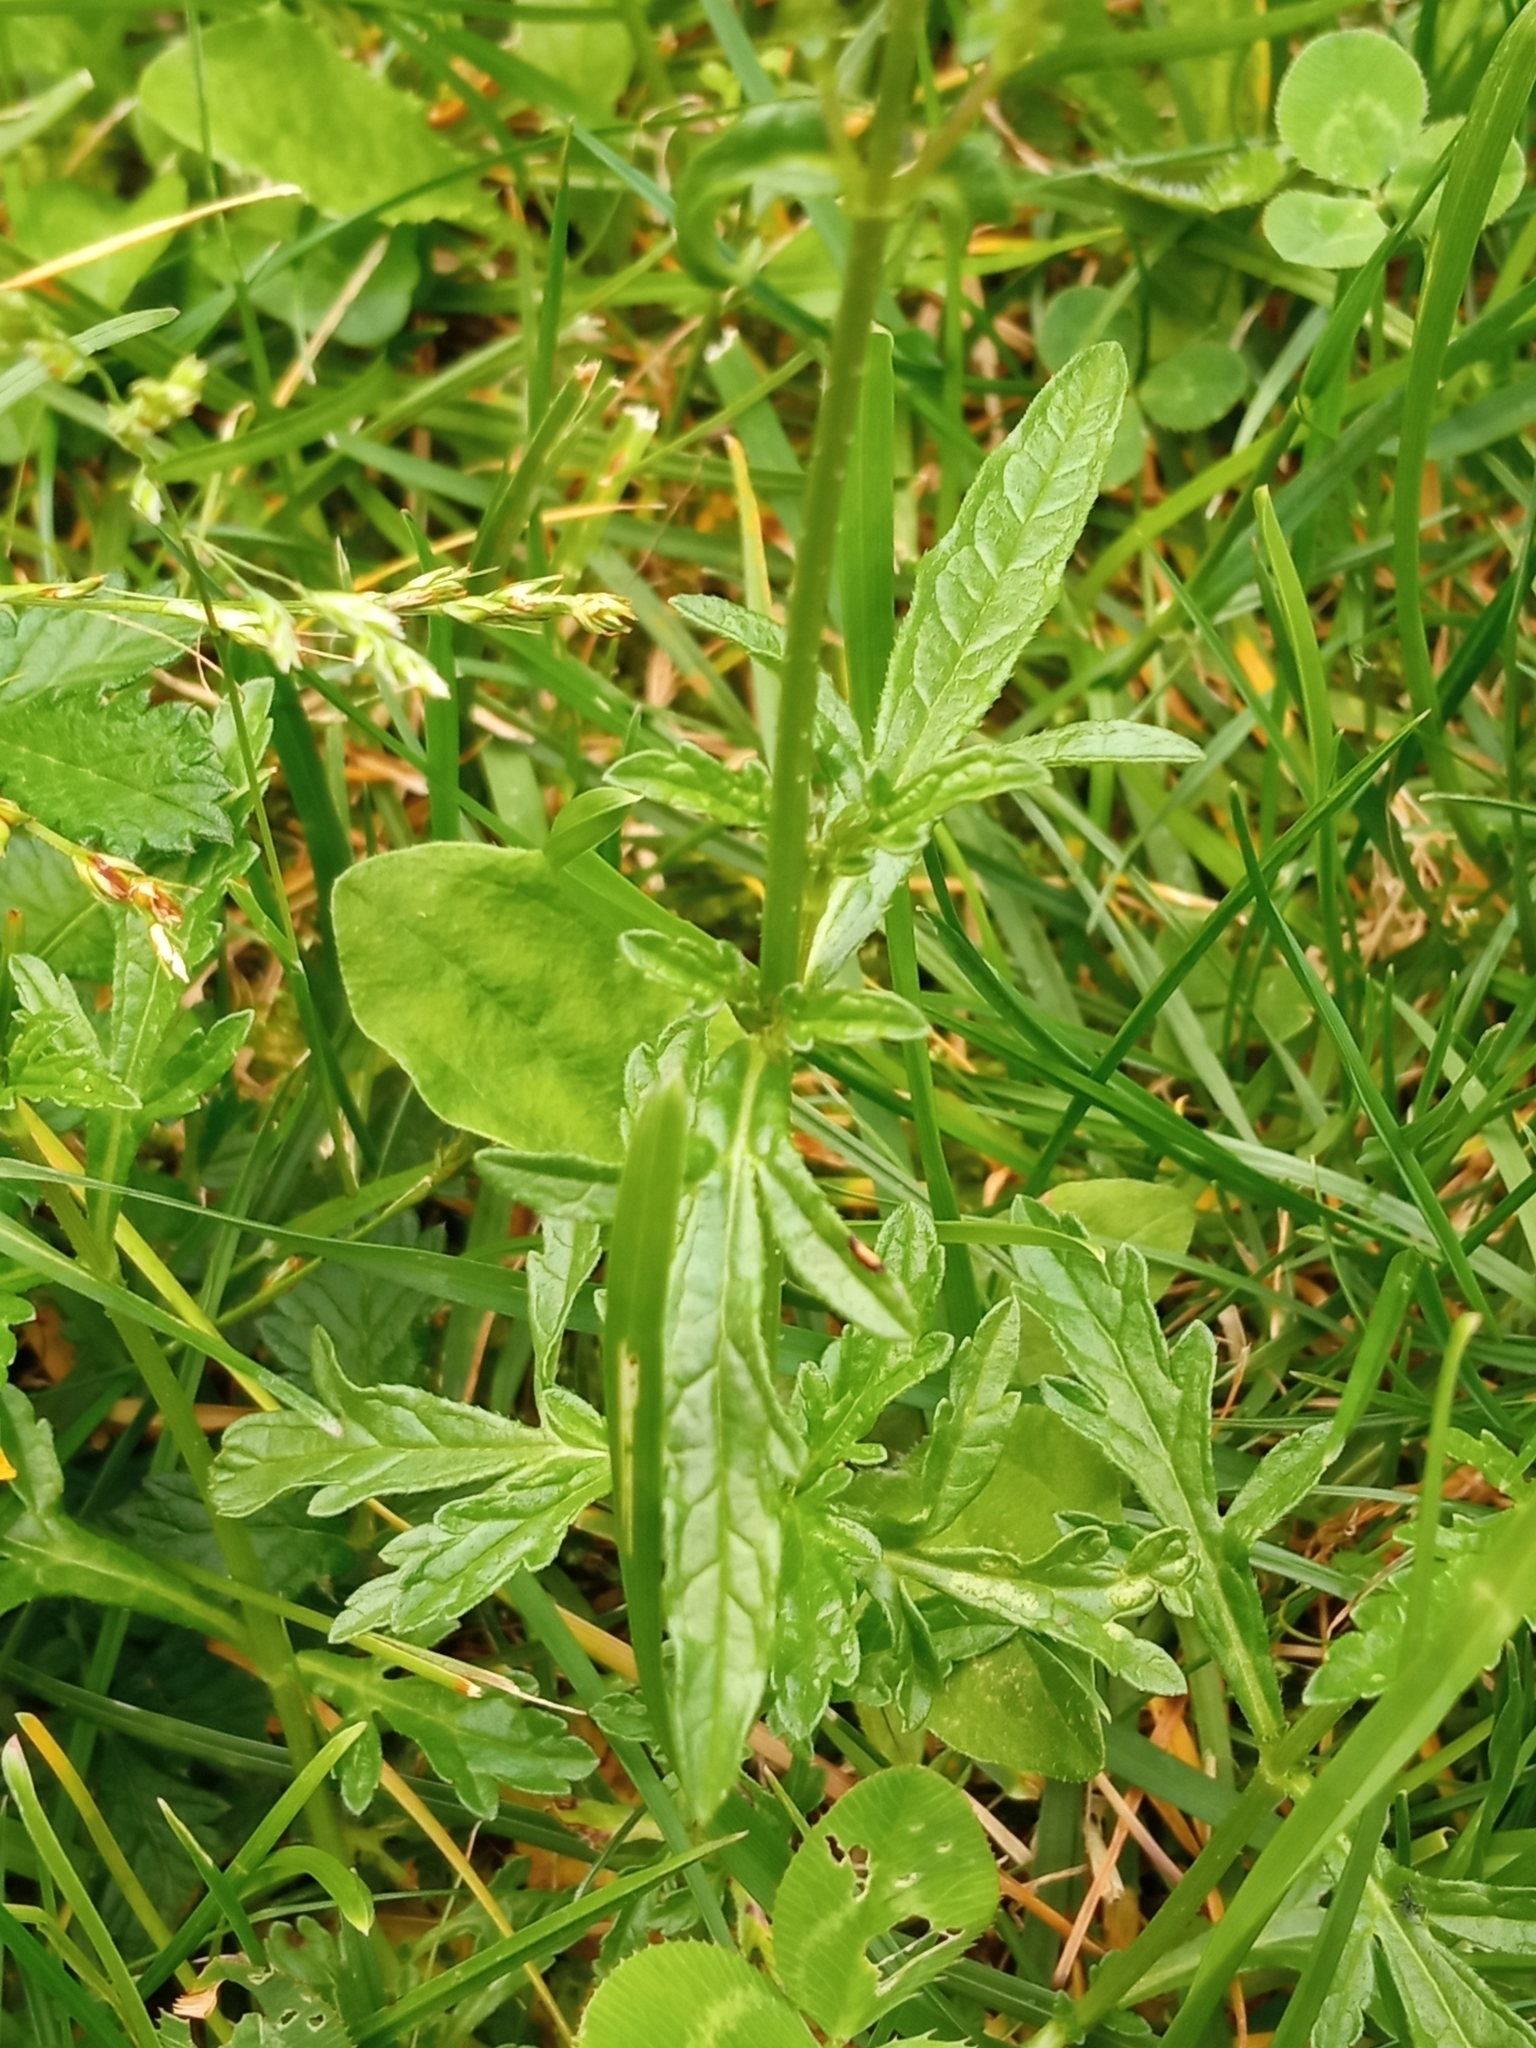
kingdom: Plantae
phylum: Tracheophyta
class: Magnoliopsida
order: Lamiales
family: Verbenaceae
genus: Verbena
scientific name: Verbena officinalis
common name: Vervain
